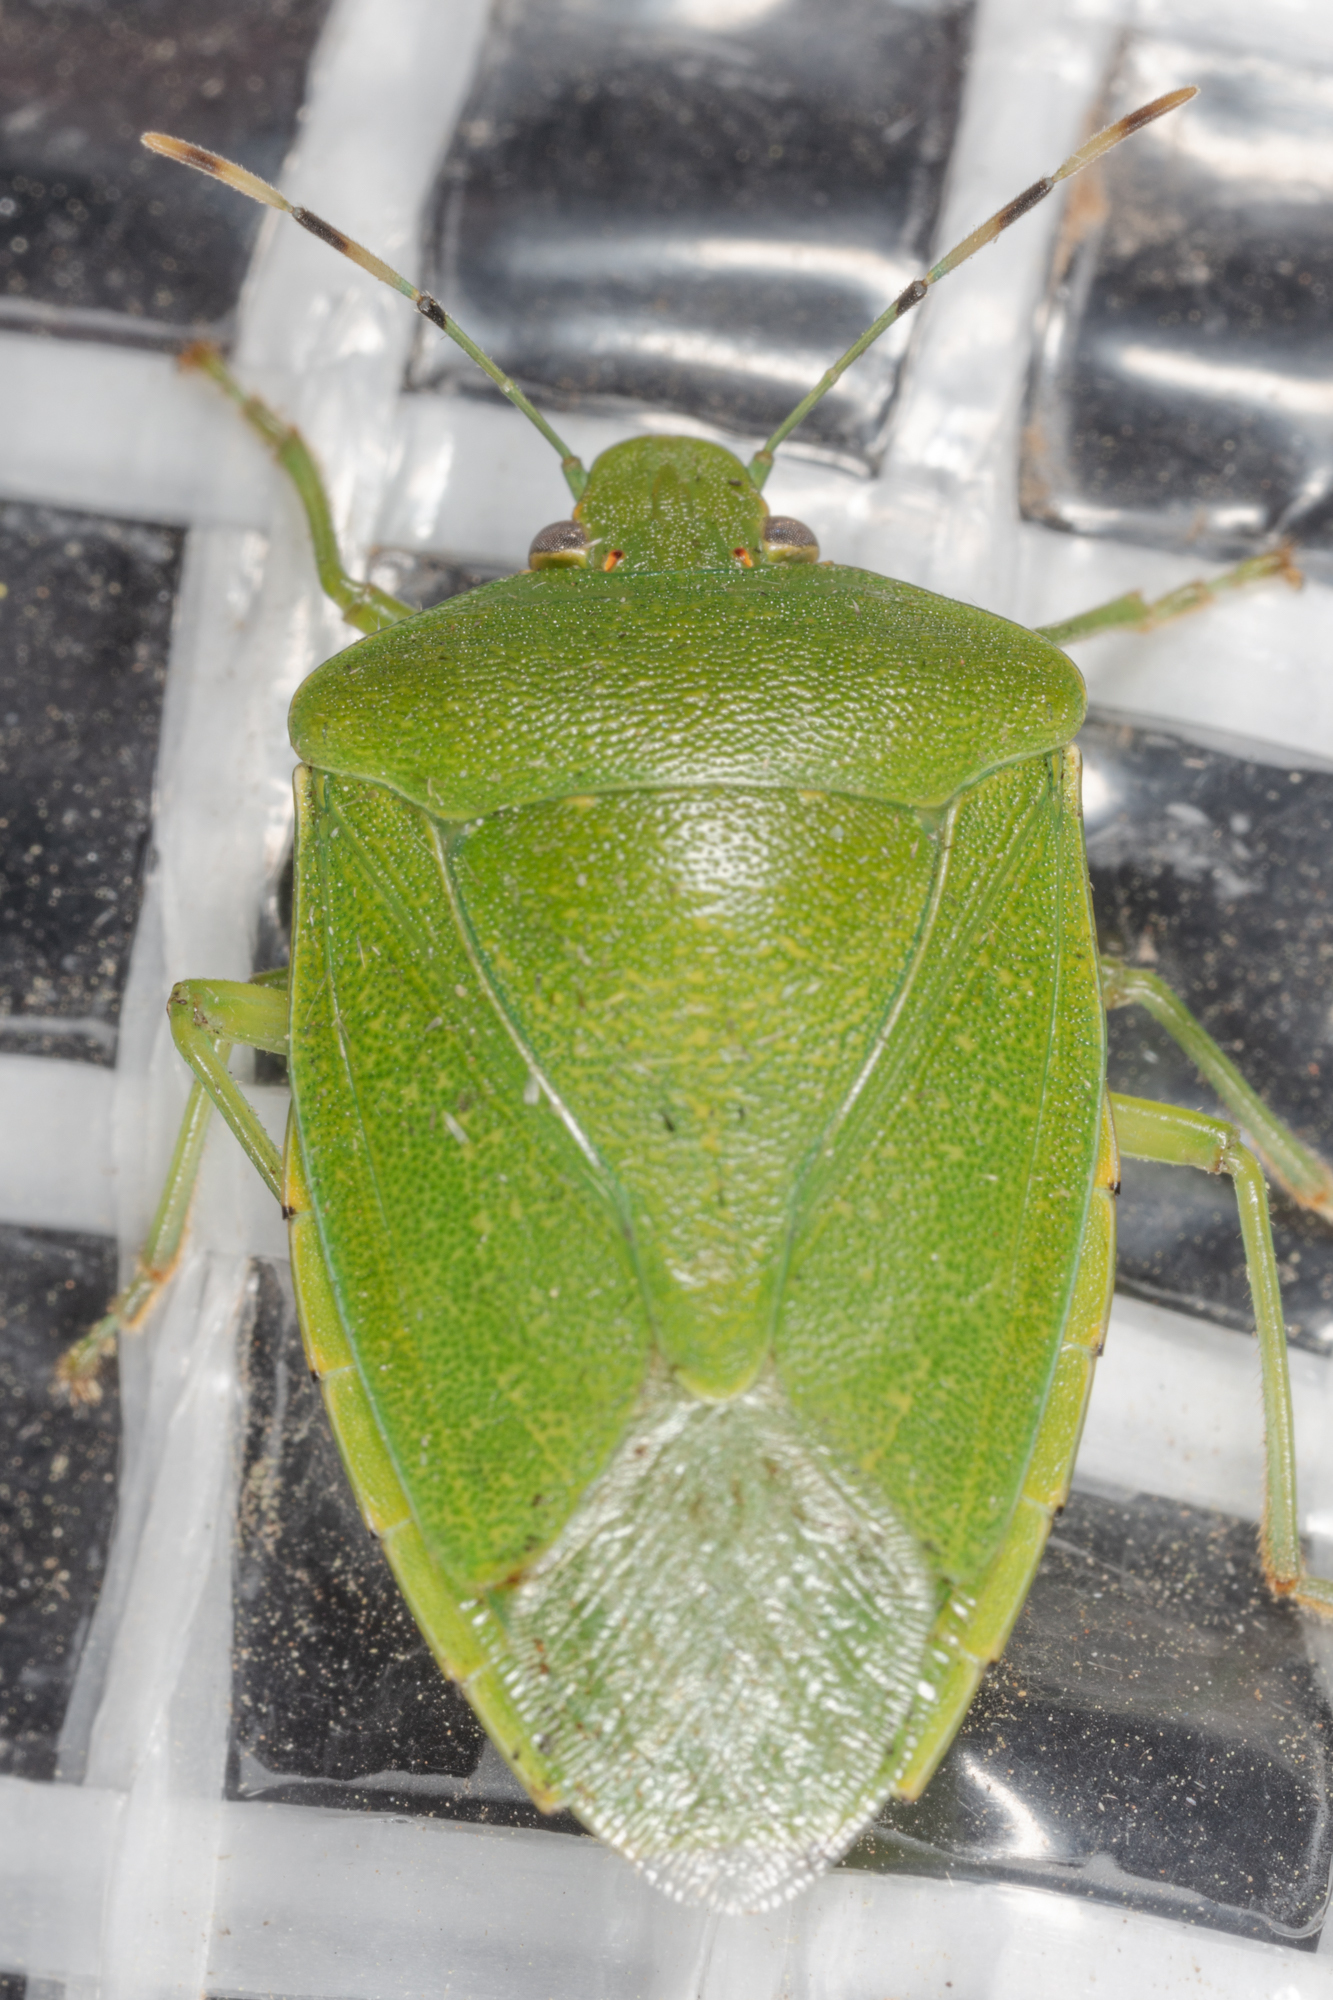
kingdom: Animalia
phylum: Arthropoda
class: Insecta
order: Hemiptera
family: Pentatomidae
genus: Chinavia
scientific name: Chinavia hilaris
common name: Green stink bug
